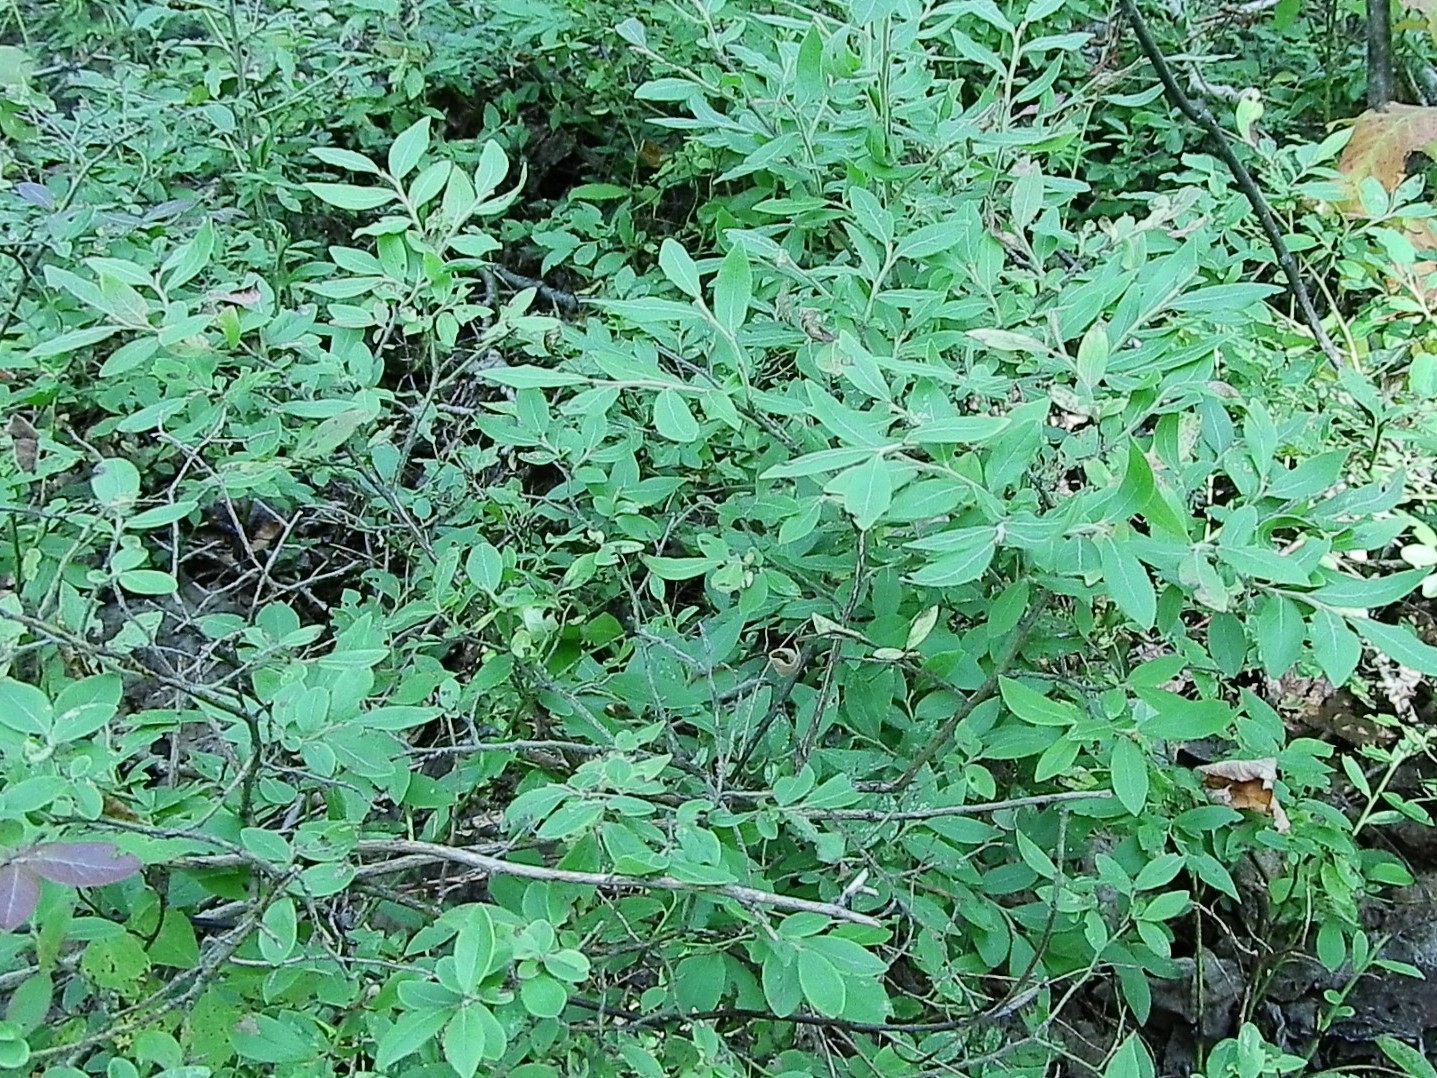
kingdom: Plantae
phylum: Tracheophyta
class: Magnoliopsida
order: Ericales
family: Ericaceae
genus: Vaccinium
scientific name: Vaccinium myrtilloides
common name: Canada blueberry
